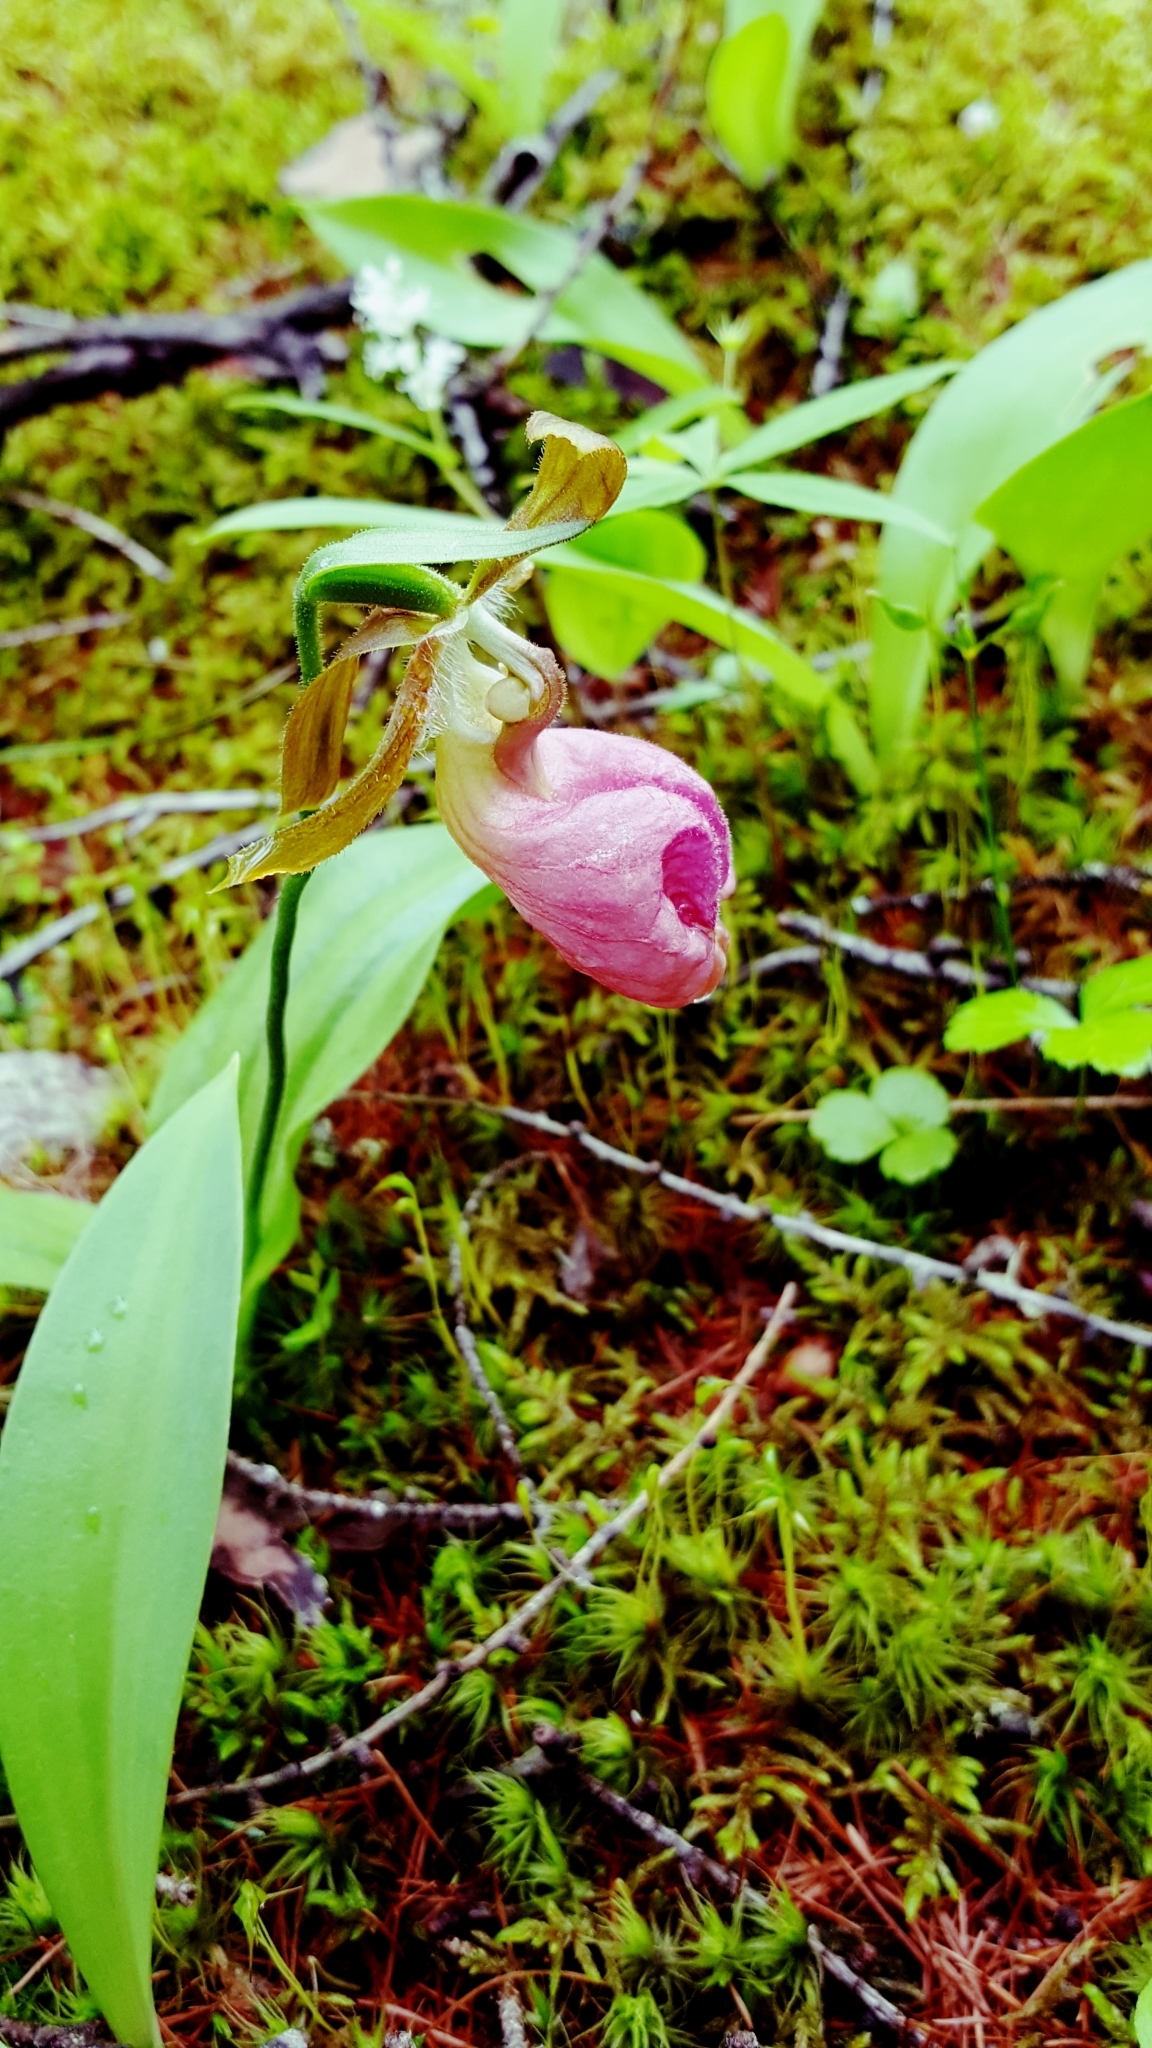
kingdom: Plantae
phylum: Tracheophyta
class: Liliopsida
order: Asparagales
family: Orchidaceae
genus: Cypripedium
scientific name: Cypripedium acaule
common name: Pink lady's-slipper
